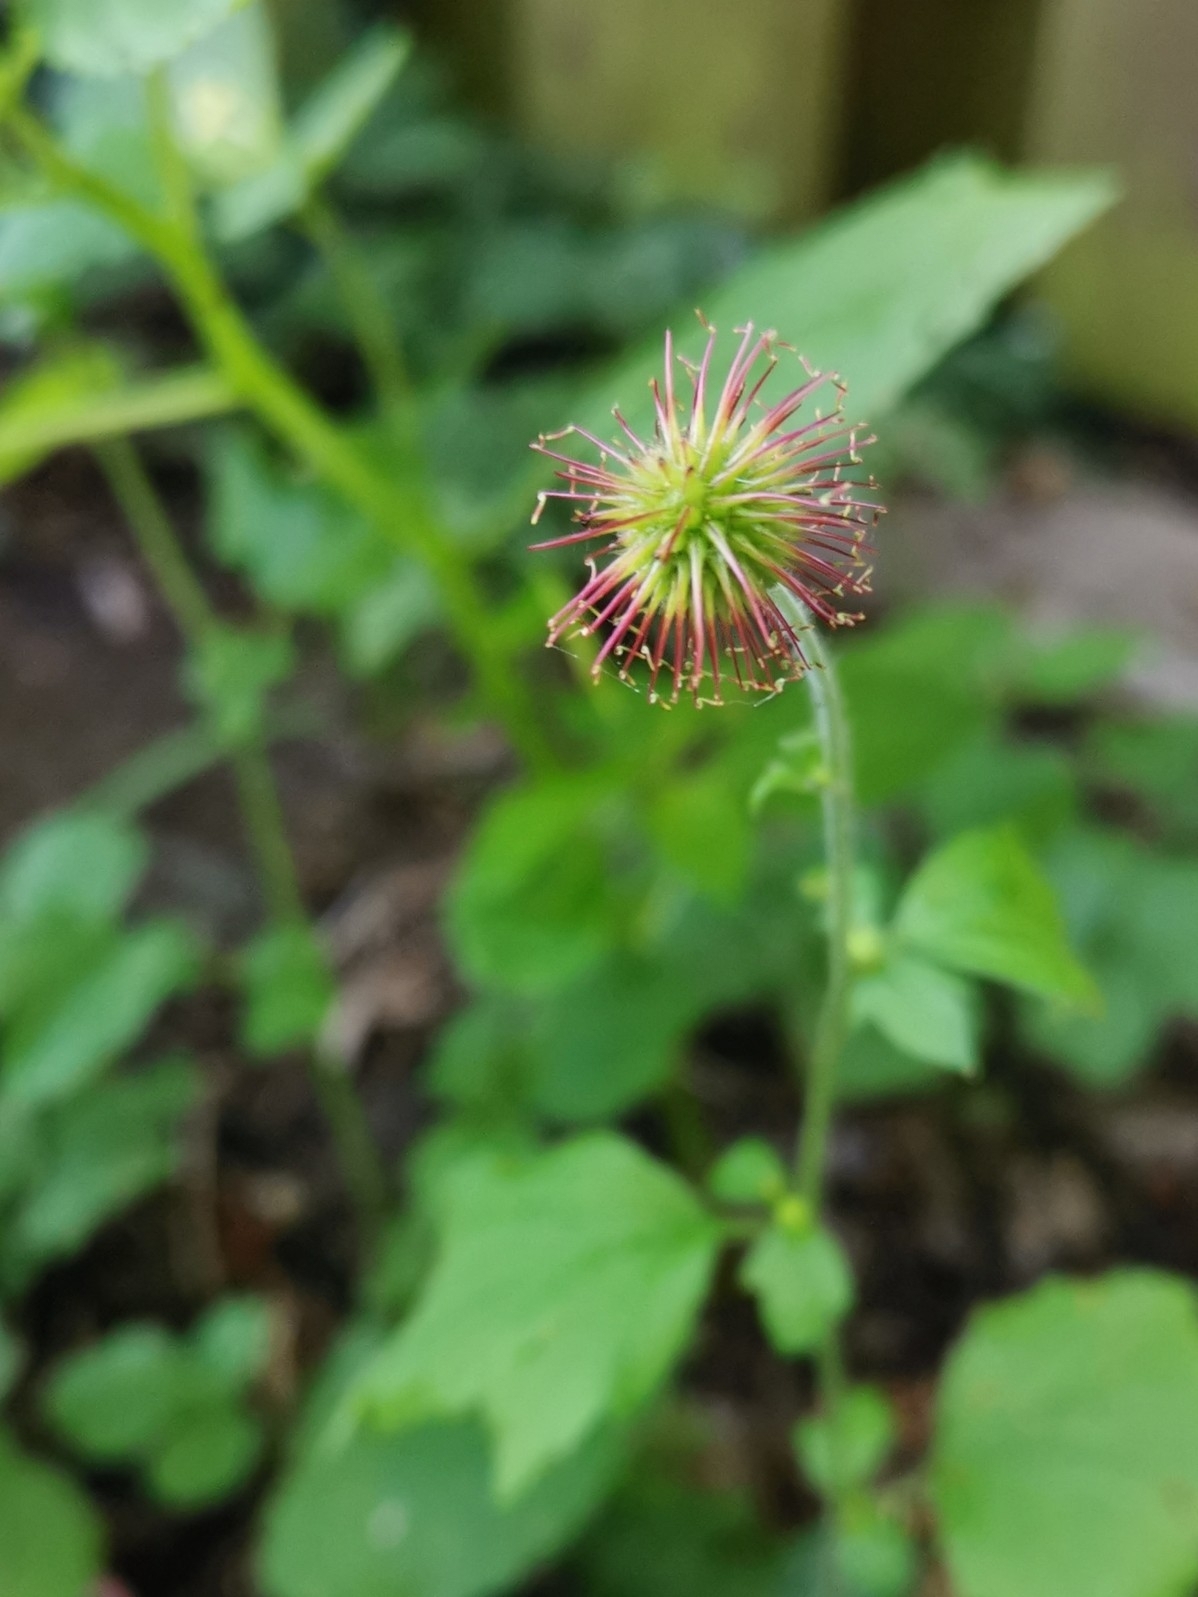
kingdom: Plantae
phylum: Tracheophyta
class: Magnoliopsida
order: Rosales
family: Rosaceae
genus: Geum
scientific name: Geum urbanum
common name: Wood avens
